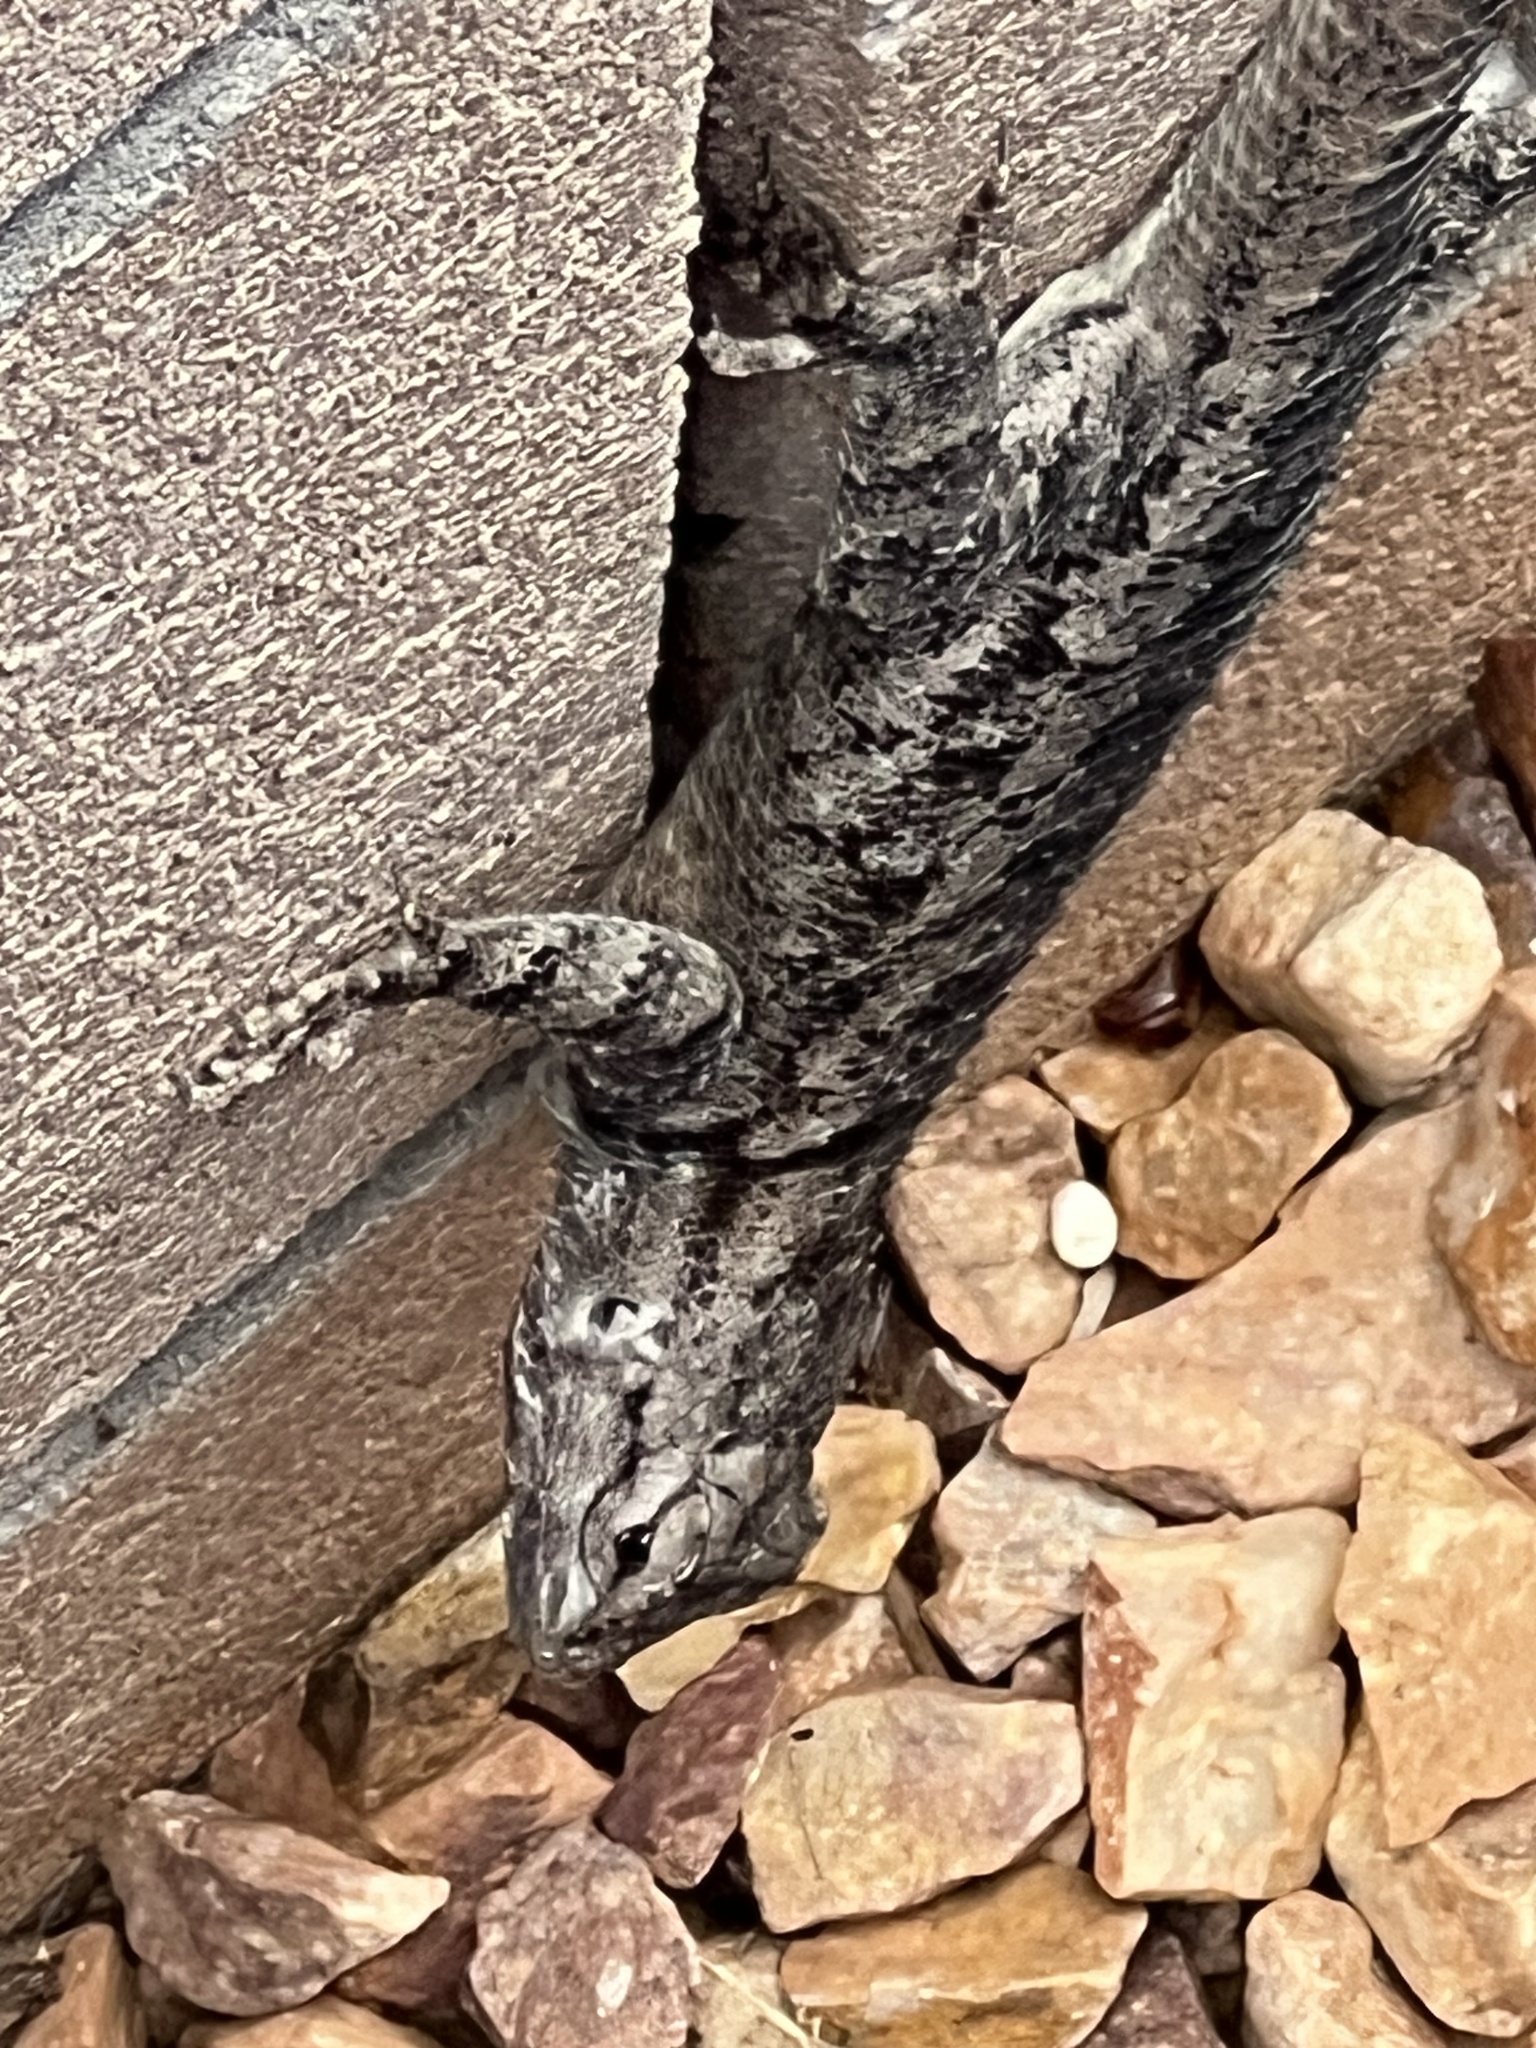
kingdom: Animalia
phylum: Chordata
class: Squamata
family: Phrynosomatidae
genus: Sceloporus
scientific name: Sceloporus clarkii
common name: Clark's spiny lizard
